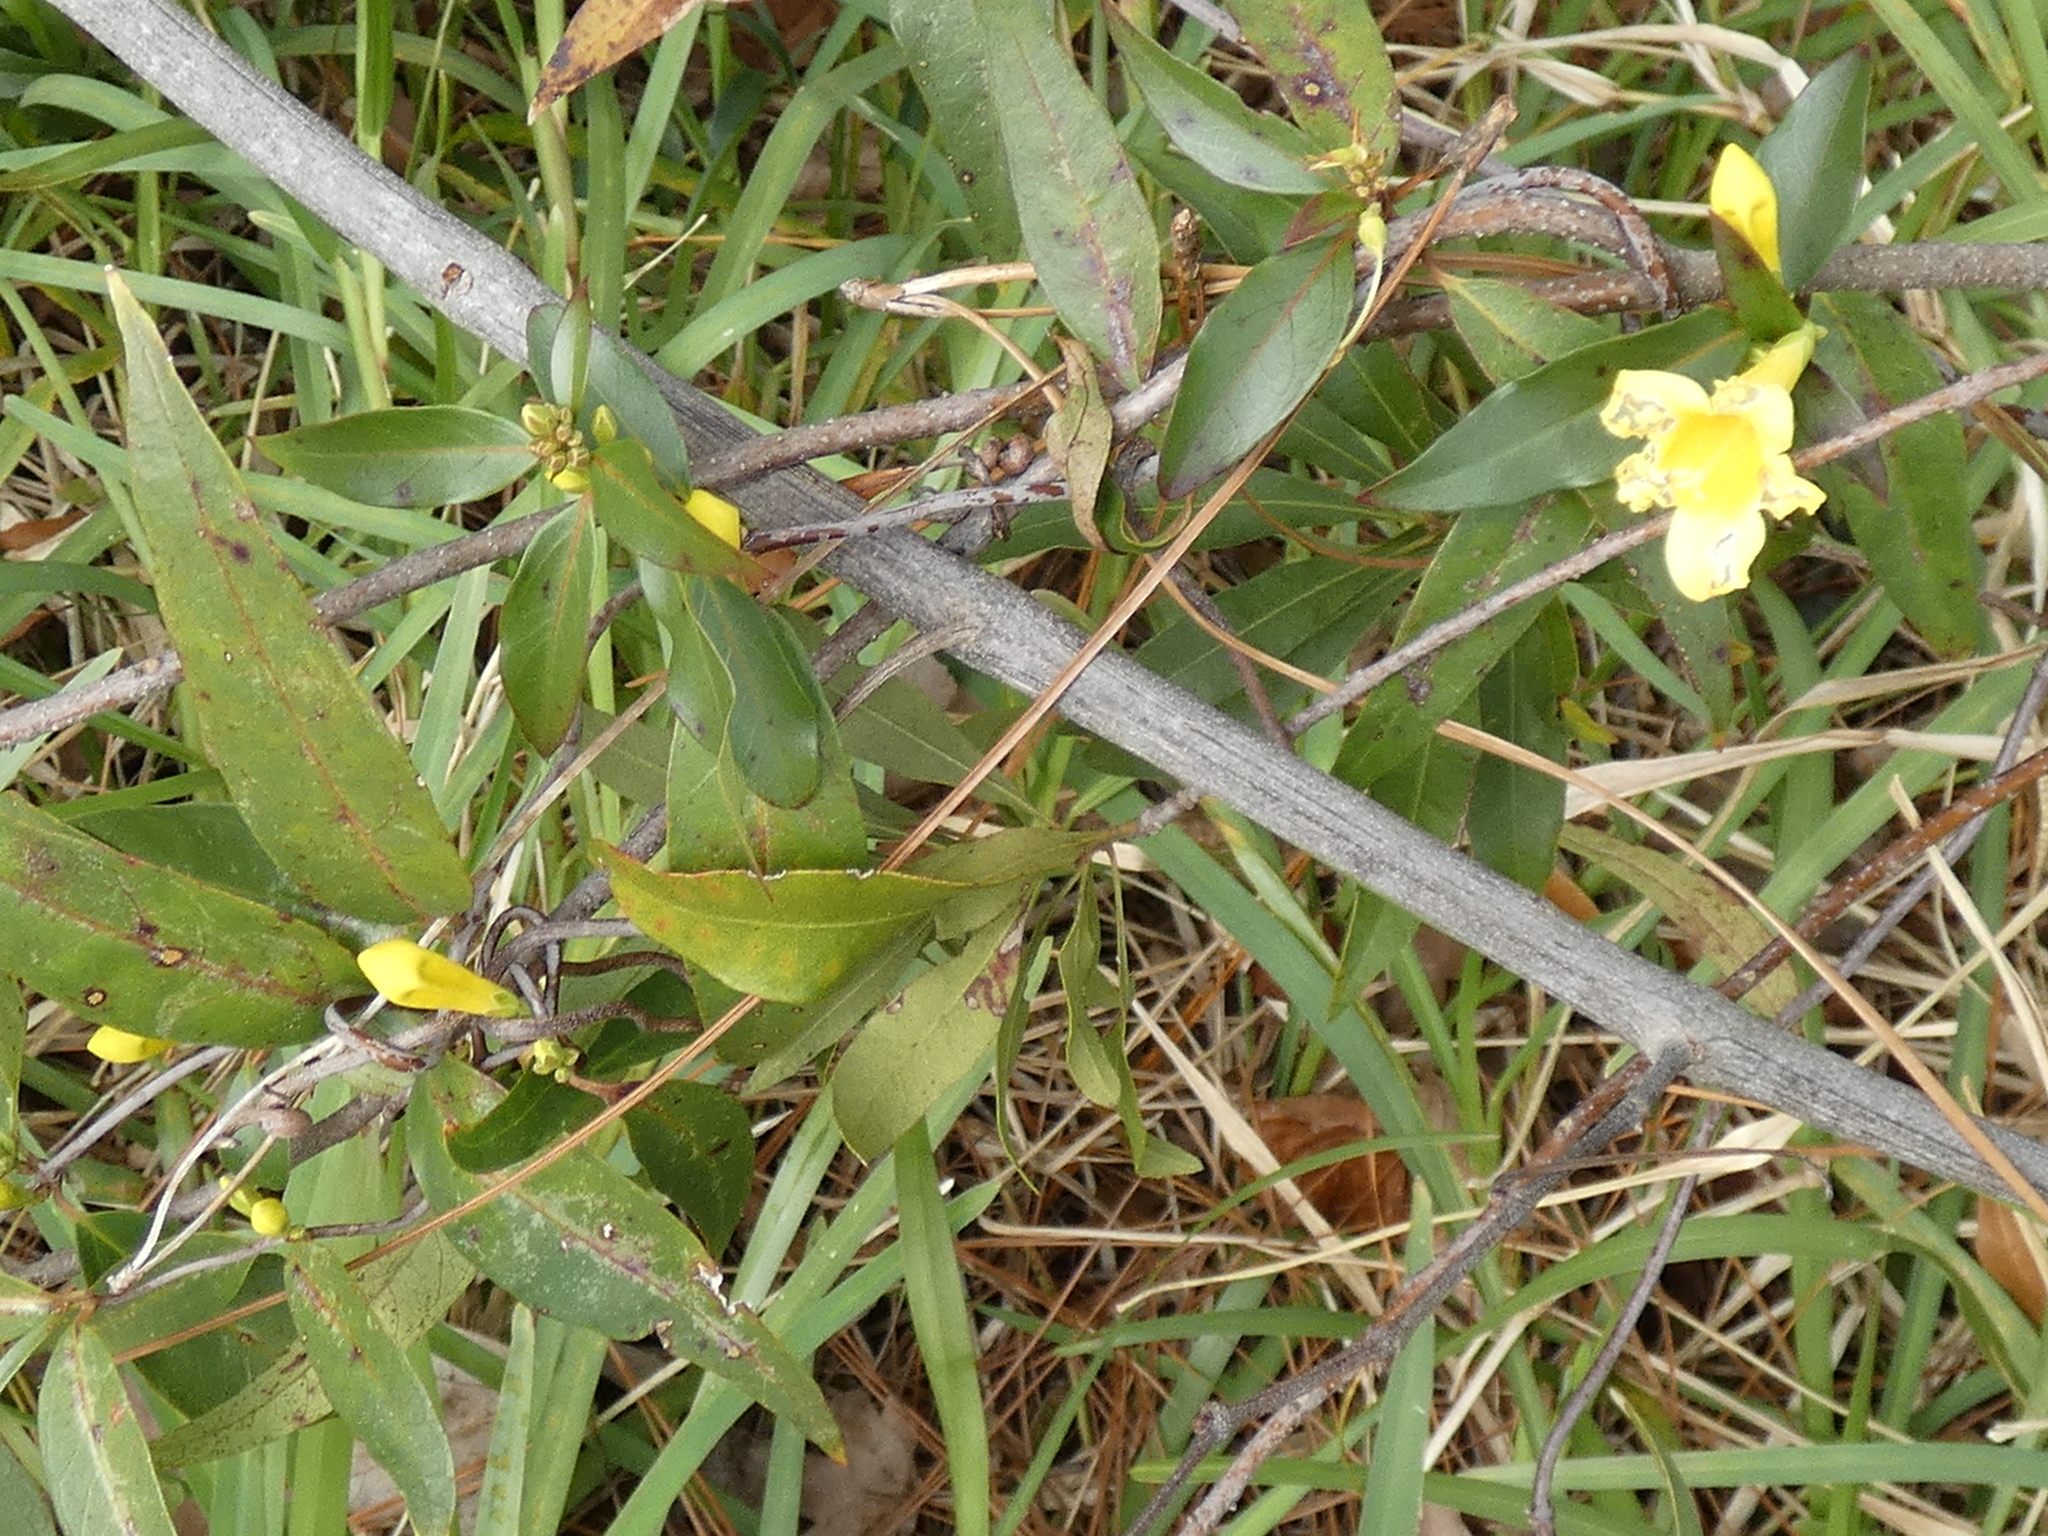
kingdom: Plantae
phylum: Tracheophyta
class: Magnoliopsida
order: Gentianales
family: Gelsemiaceae
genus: Gelsemium
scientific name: Gelsemium sempervirens
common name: Carolina-jasmine
